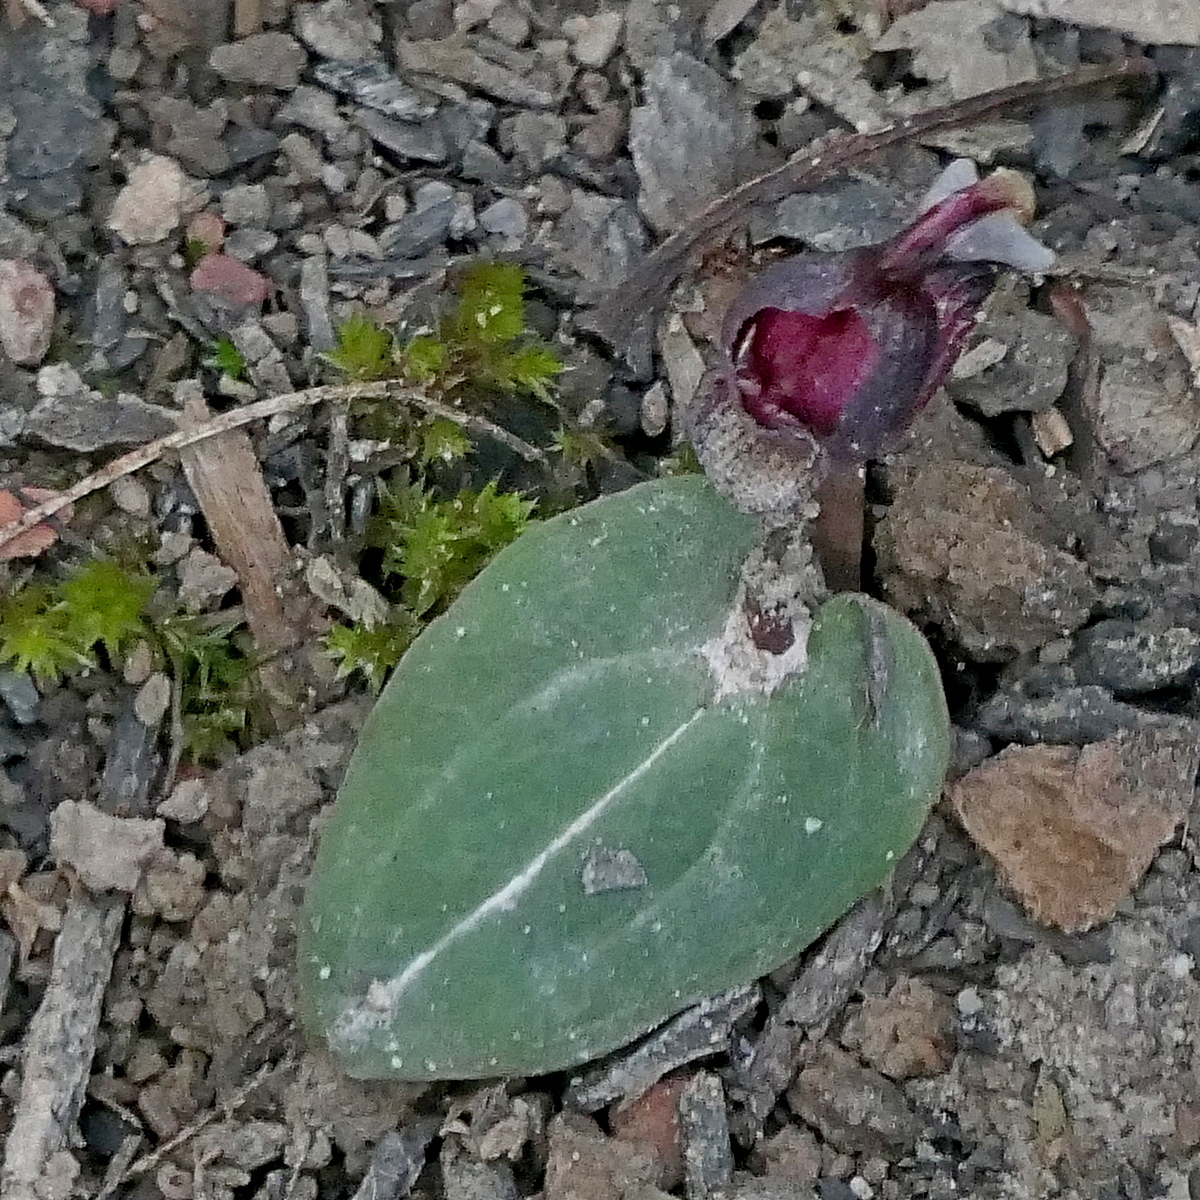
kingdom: Plantae
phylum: Tracheophyta
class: Liliopsida
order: Asparagales
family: Orchidaceae
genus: Corybas
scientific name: Corybas unguiculatus
